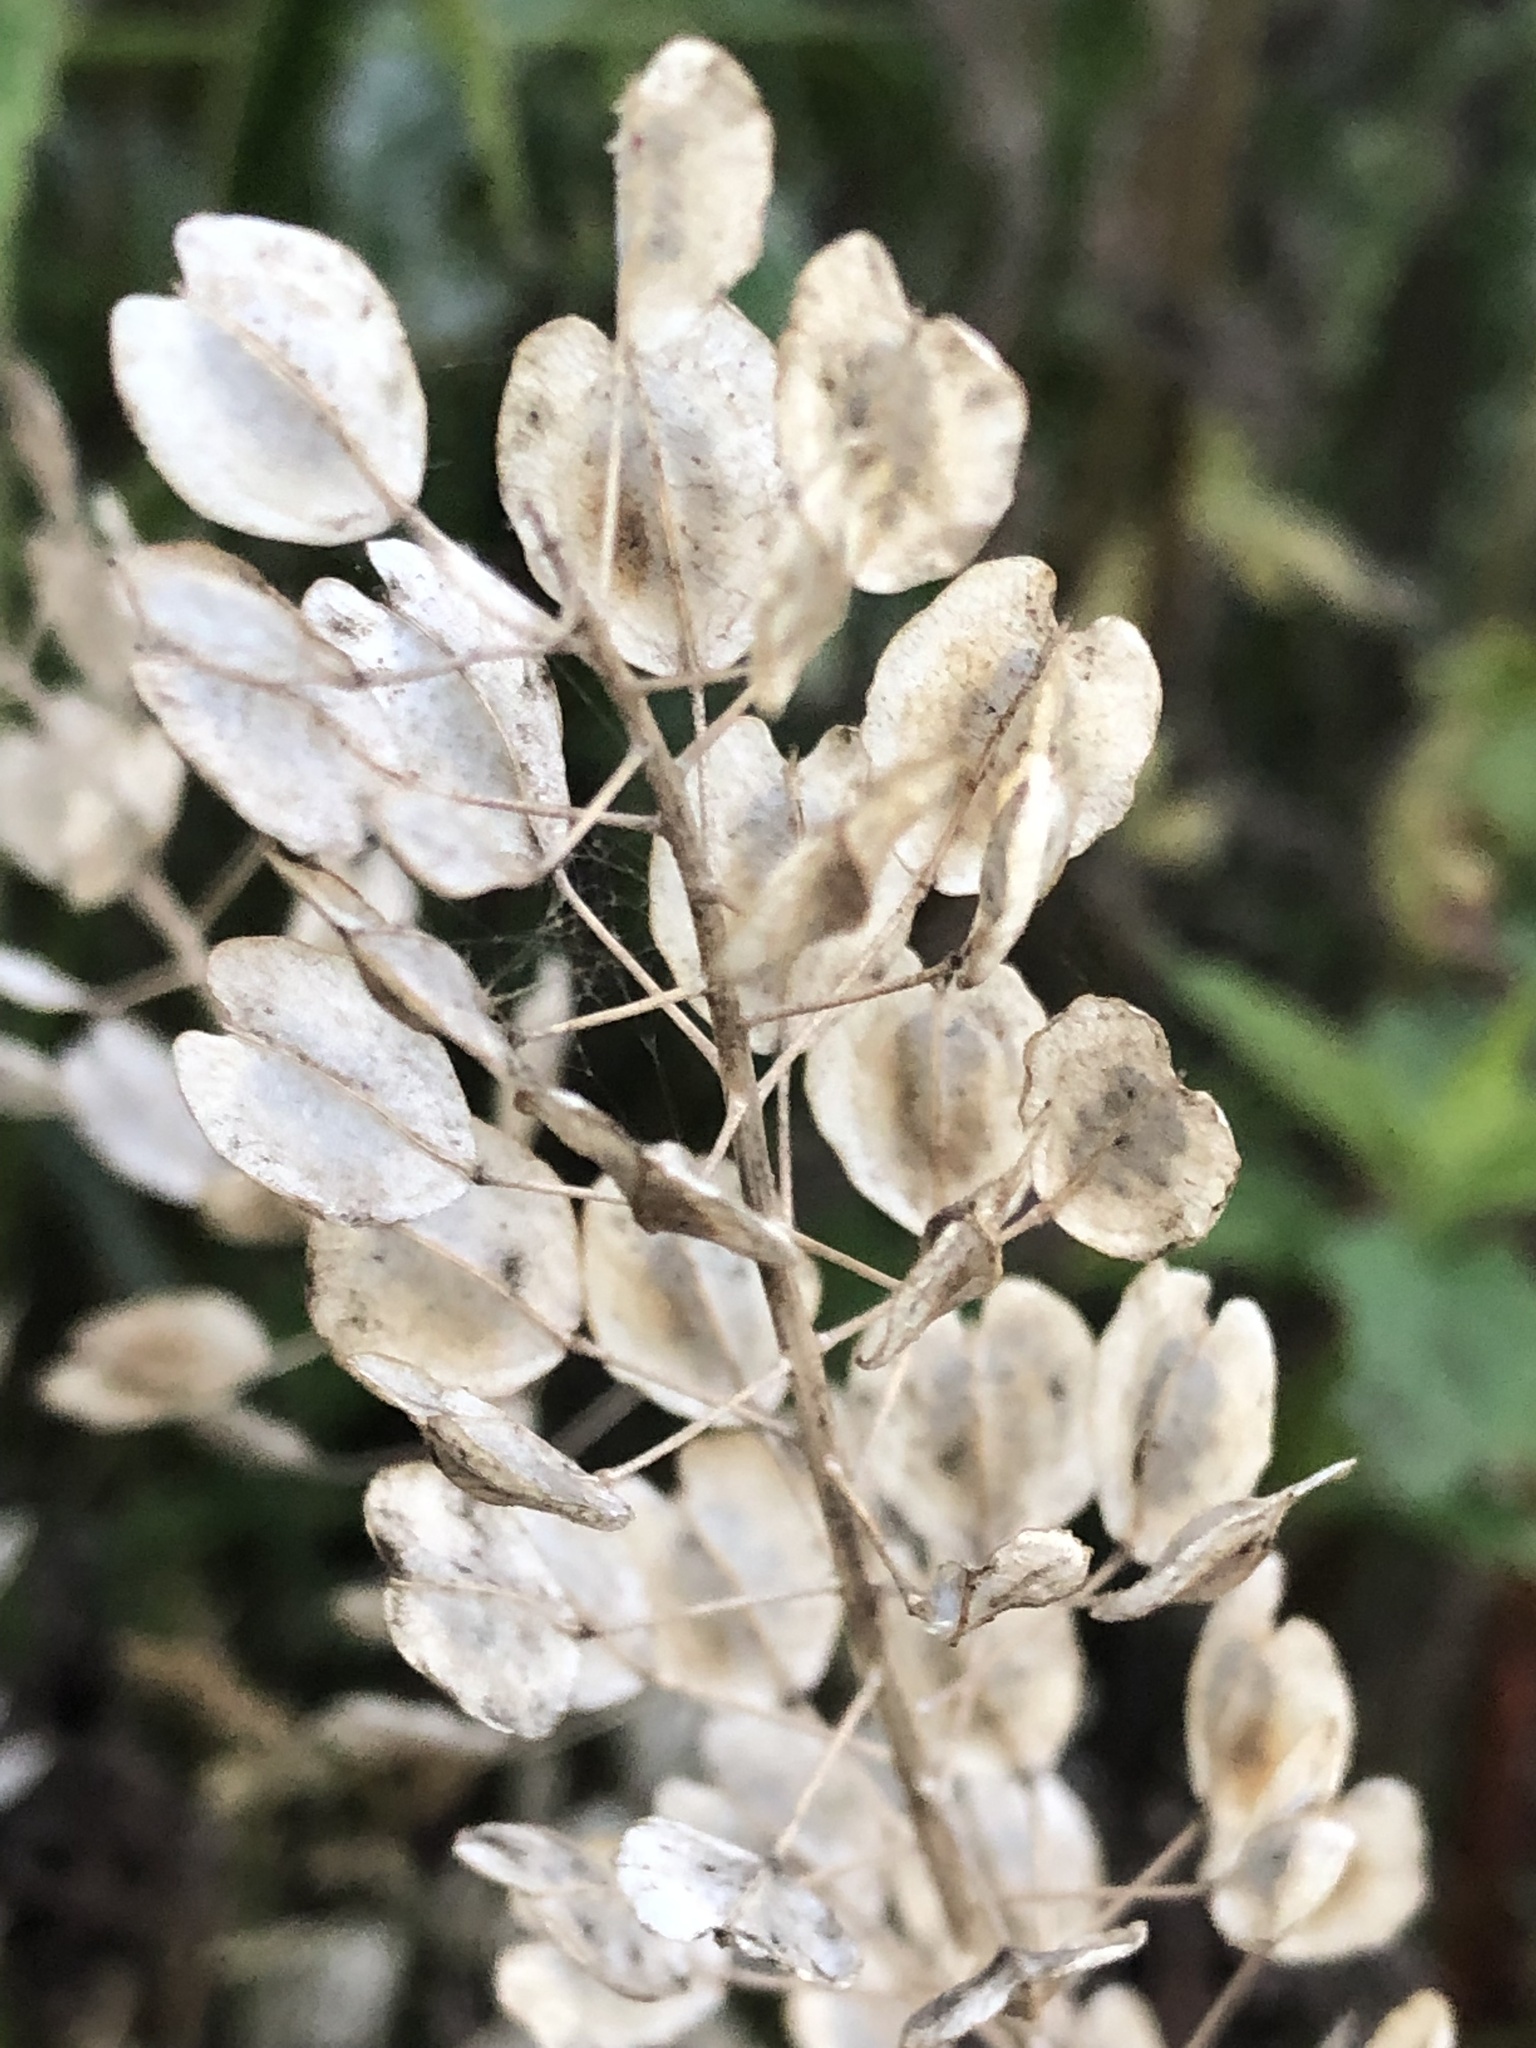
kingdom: Plantae
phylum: Tracheophyta
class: Magnoliopsida
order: Brassicales
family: Brassicaceae
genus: Thlaspi
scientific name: Thlaspi arvense
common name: Field pennycress
